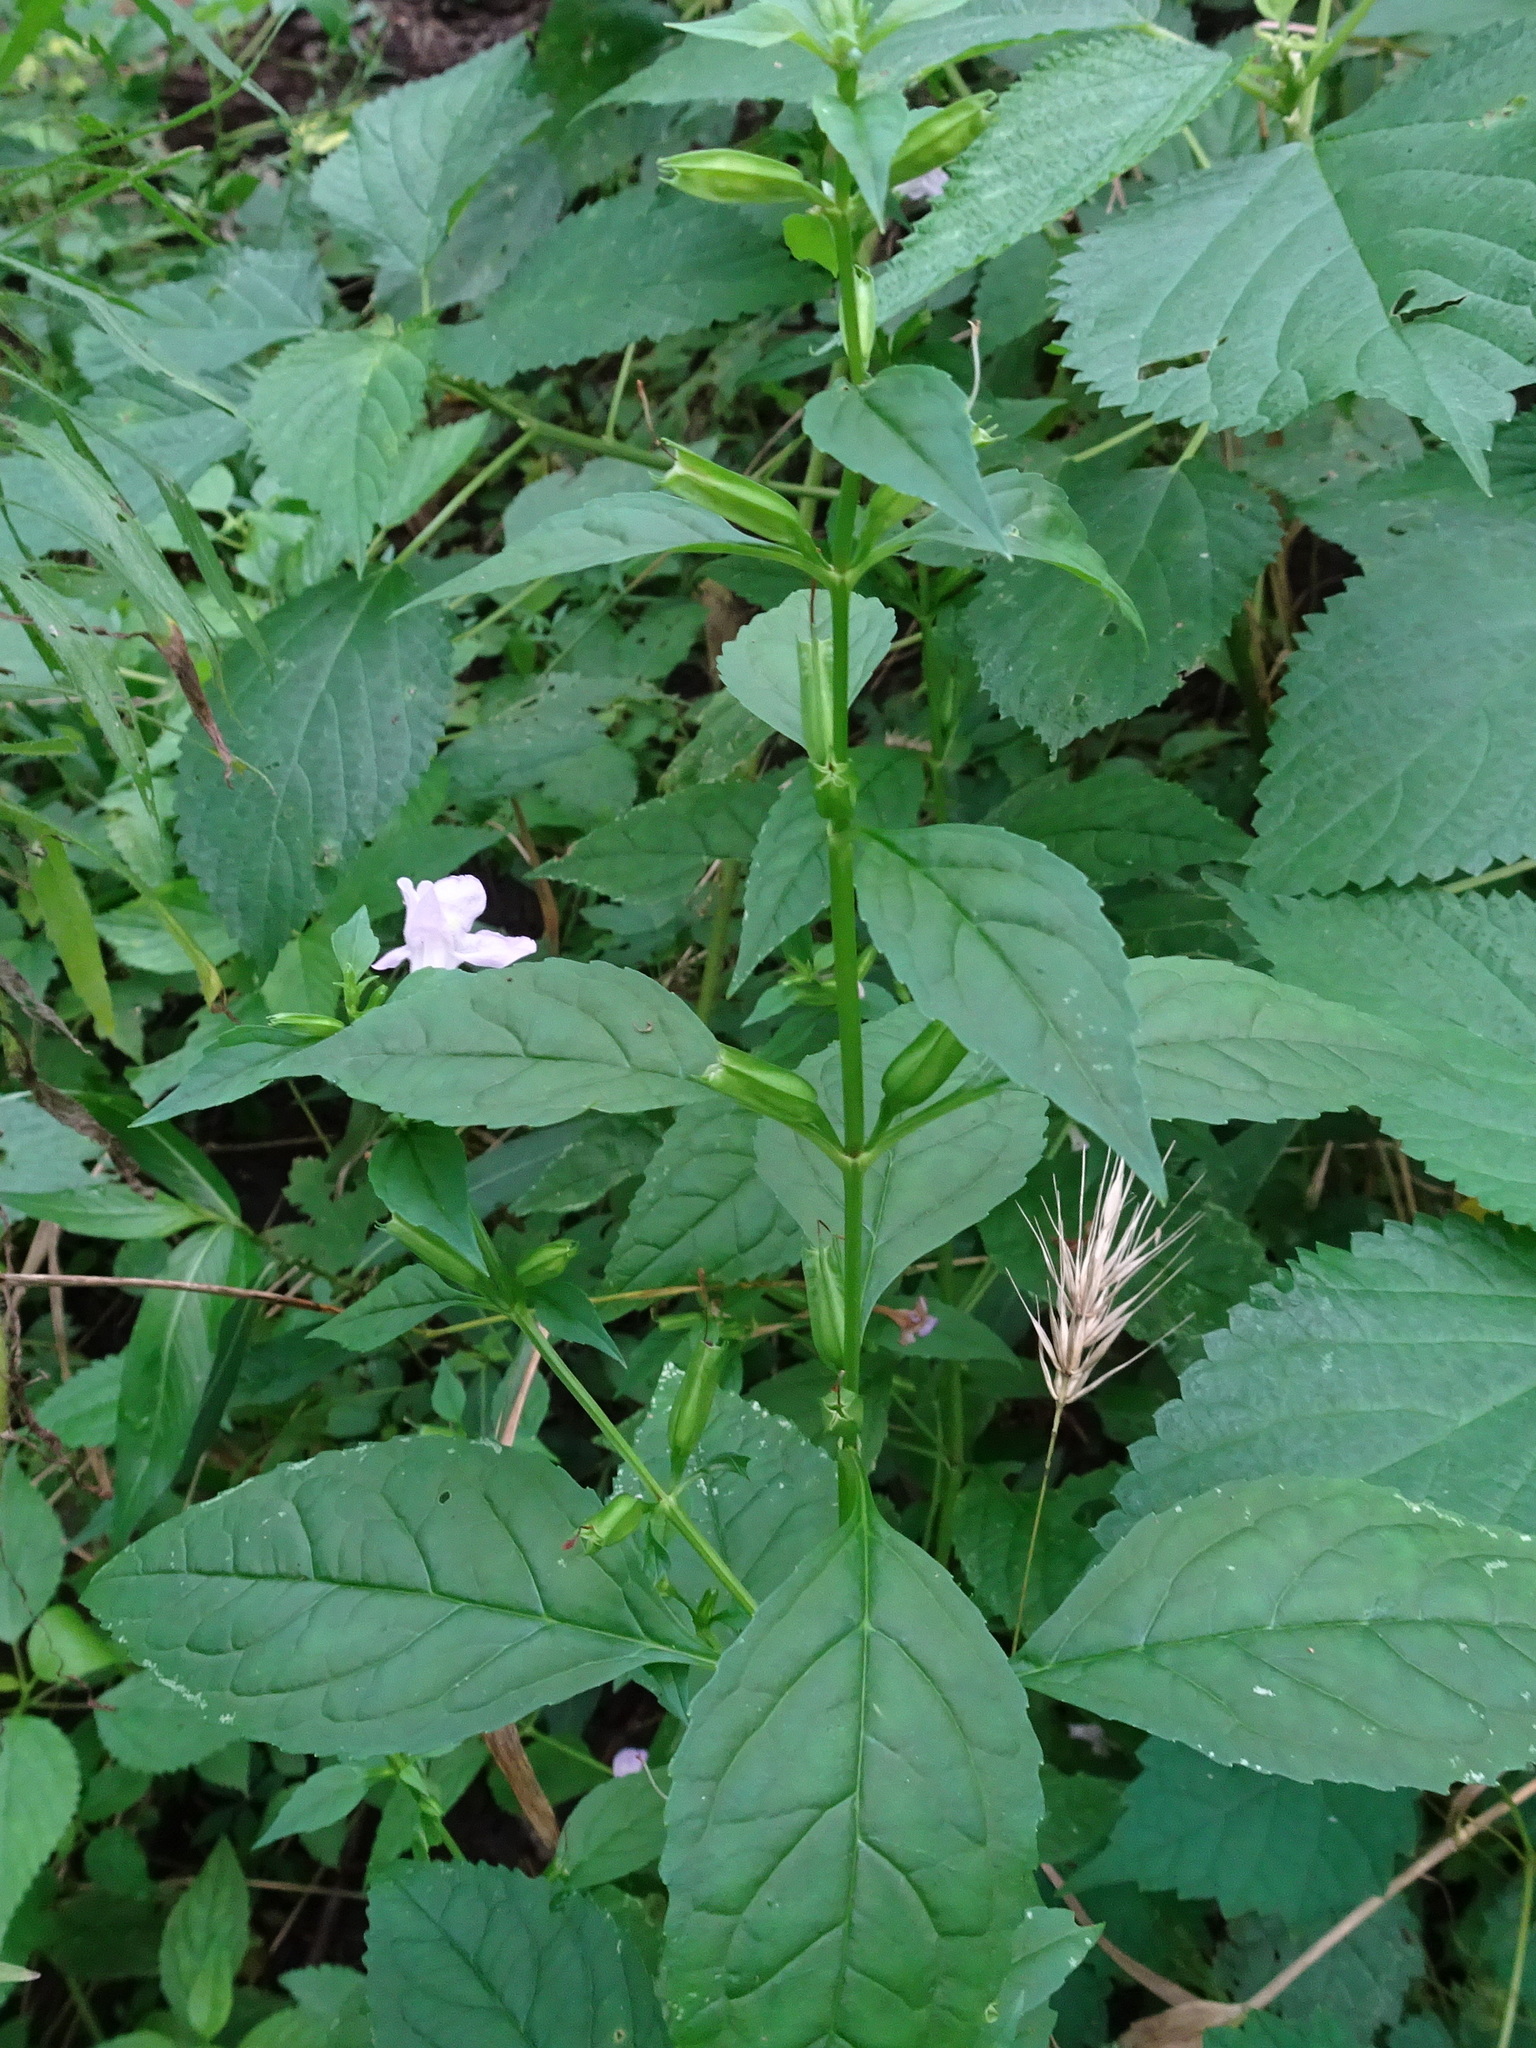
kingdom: Plantae
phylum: Tracheophyta
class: Magnoliopsida
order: Lamiales
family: Phrymaceae
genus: Mimulus
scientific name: Mimulus alatus
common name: Sharp-wing monkey-flower
